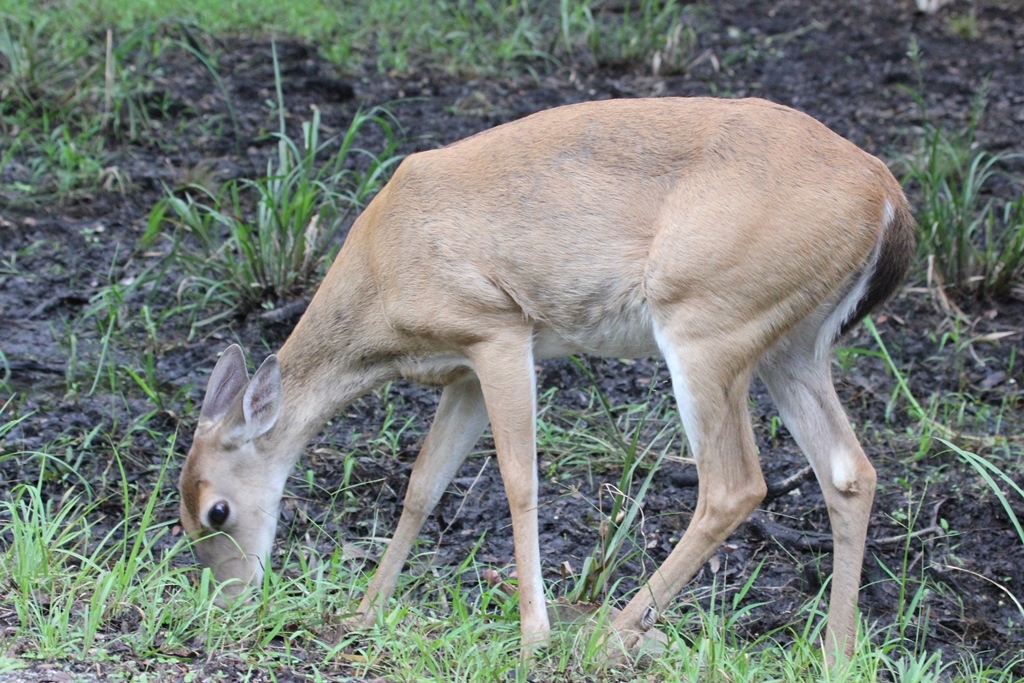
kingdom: Animalia
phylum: Chordata
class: Mammalia
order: Artiodactyla
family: Cervidae
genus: Odocoileus
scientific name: Odocoileus virginianus
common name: White-tailed deer
